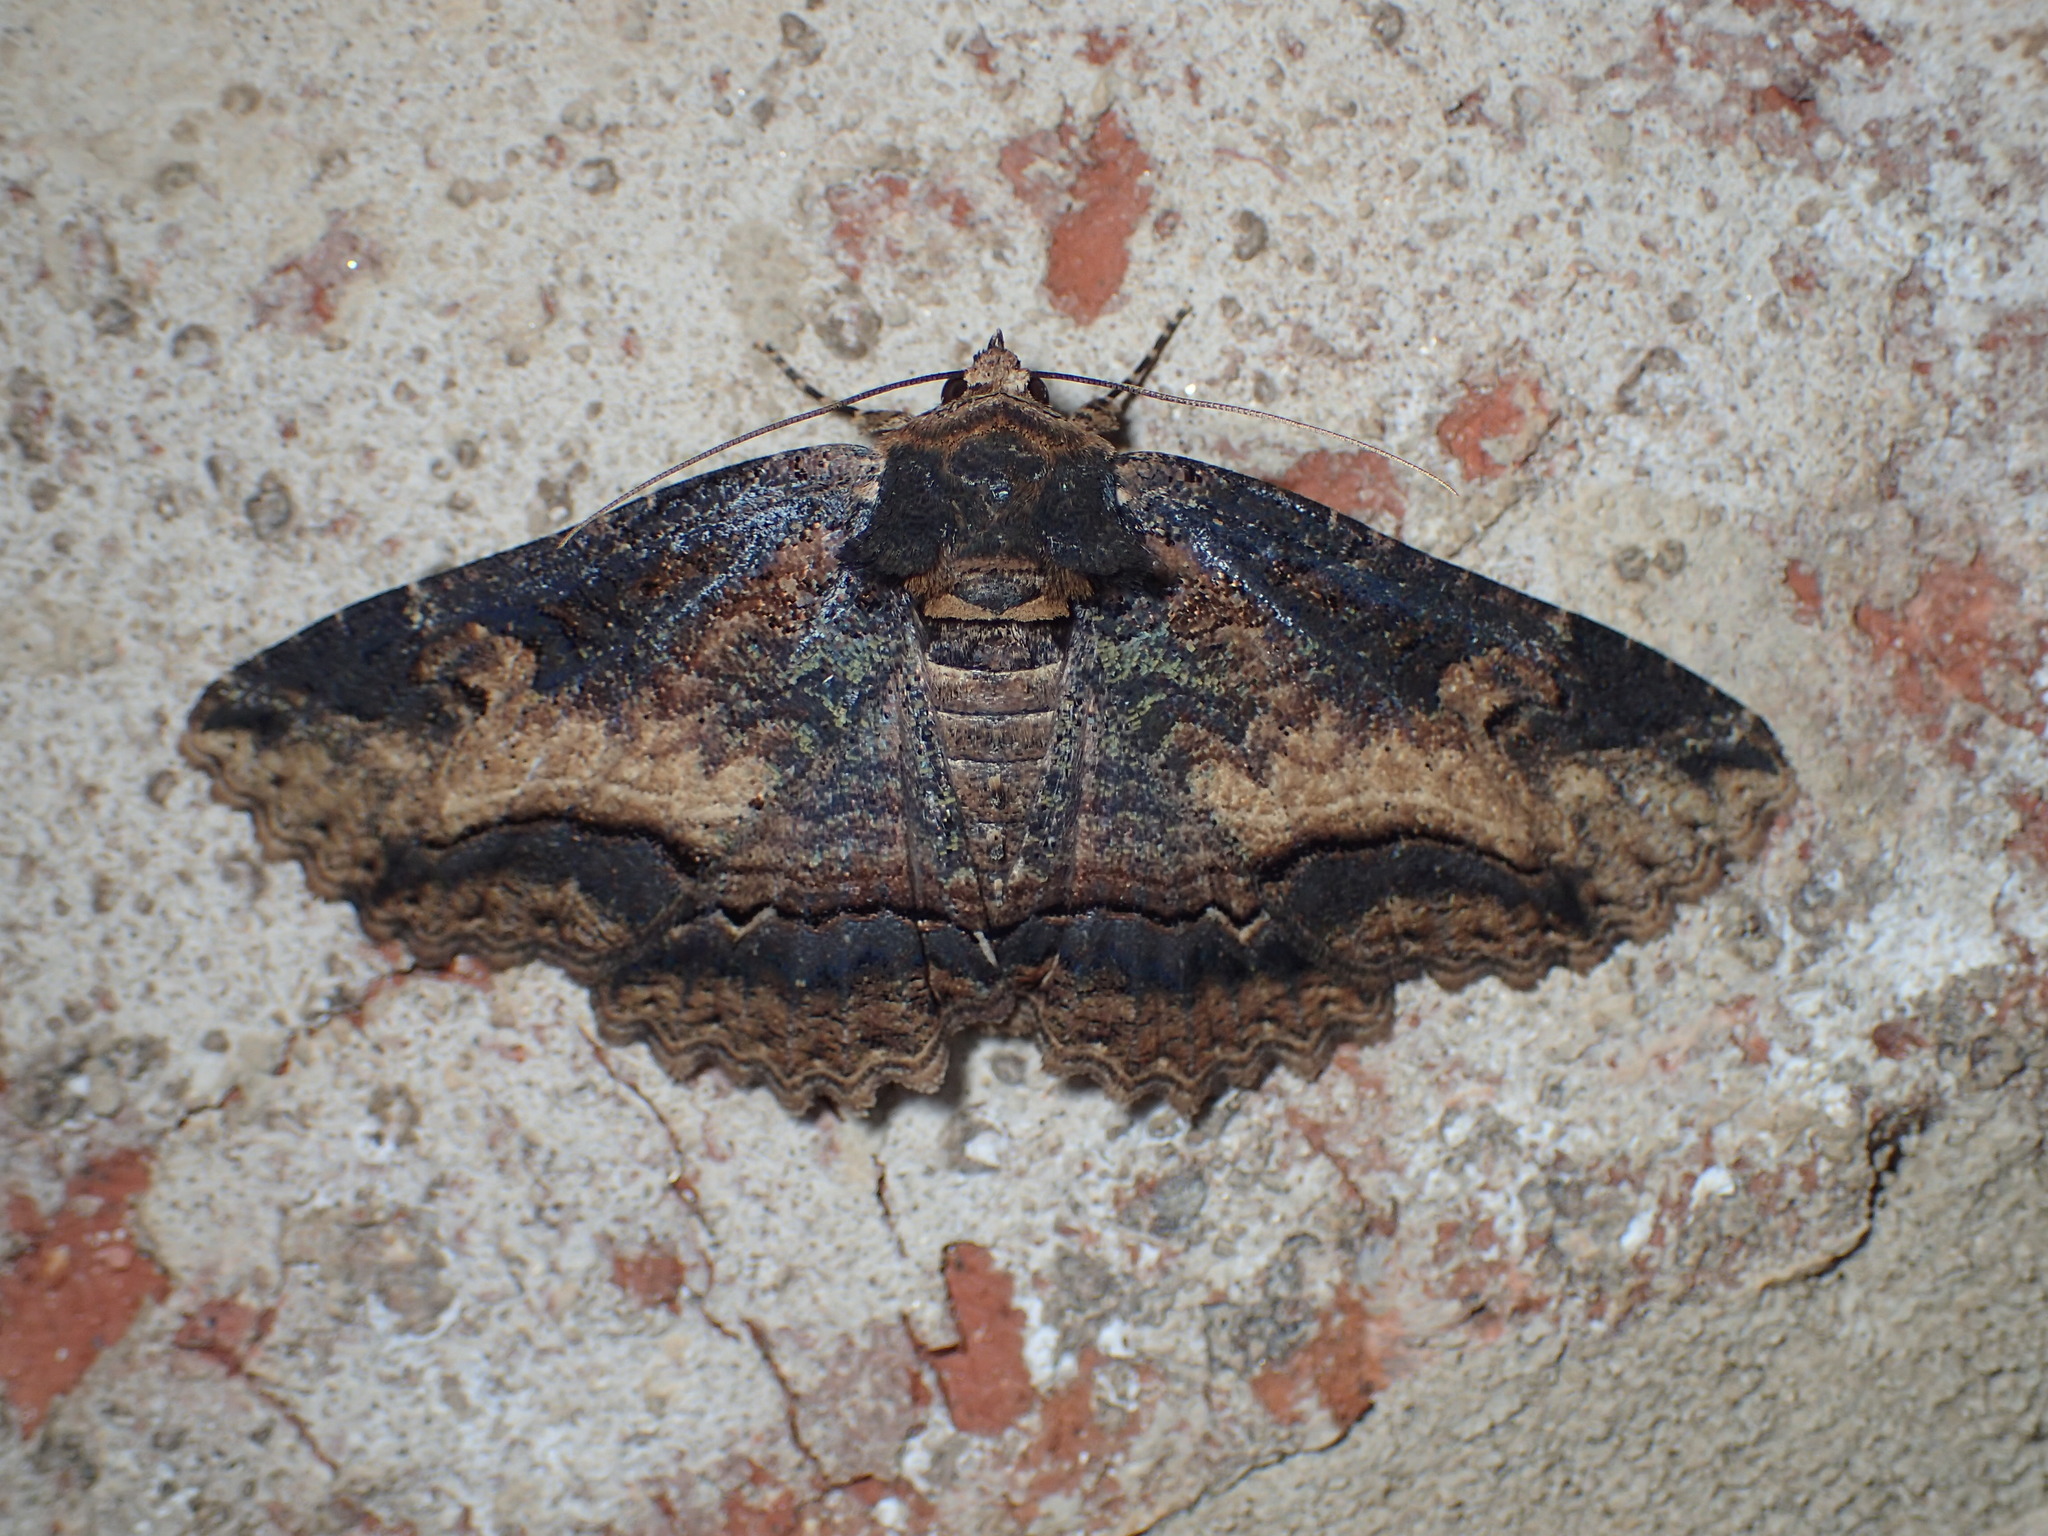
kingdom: Animalia
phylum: Arthropoda
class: Insecta
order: Lepidoptera
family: Erebidae
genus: Zale
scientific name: Zale minerea
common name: Colorful zale moth
